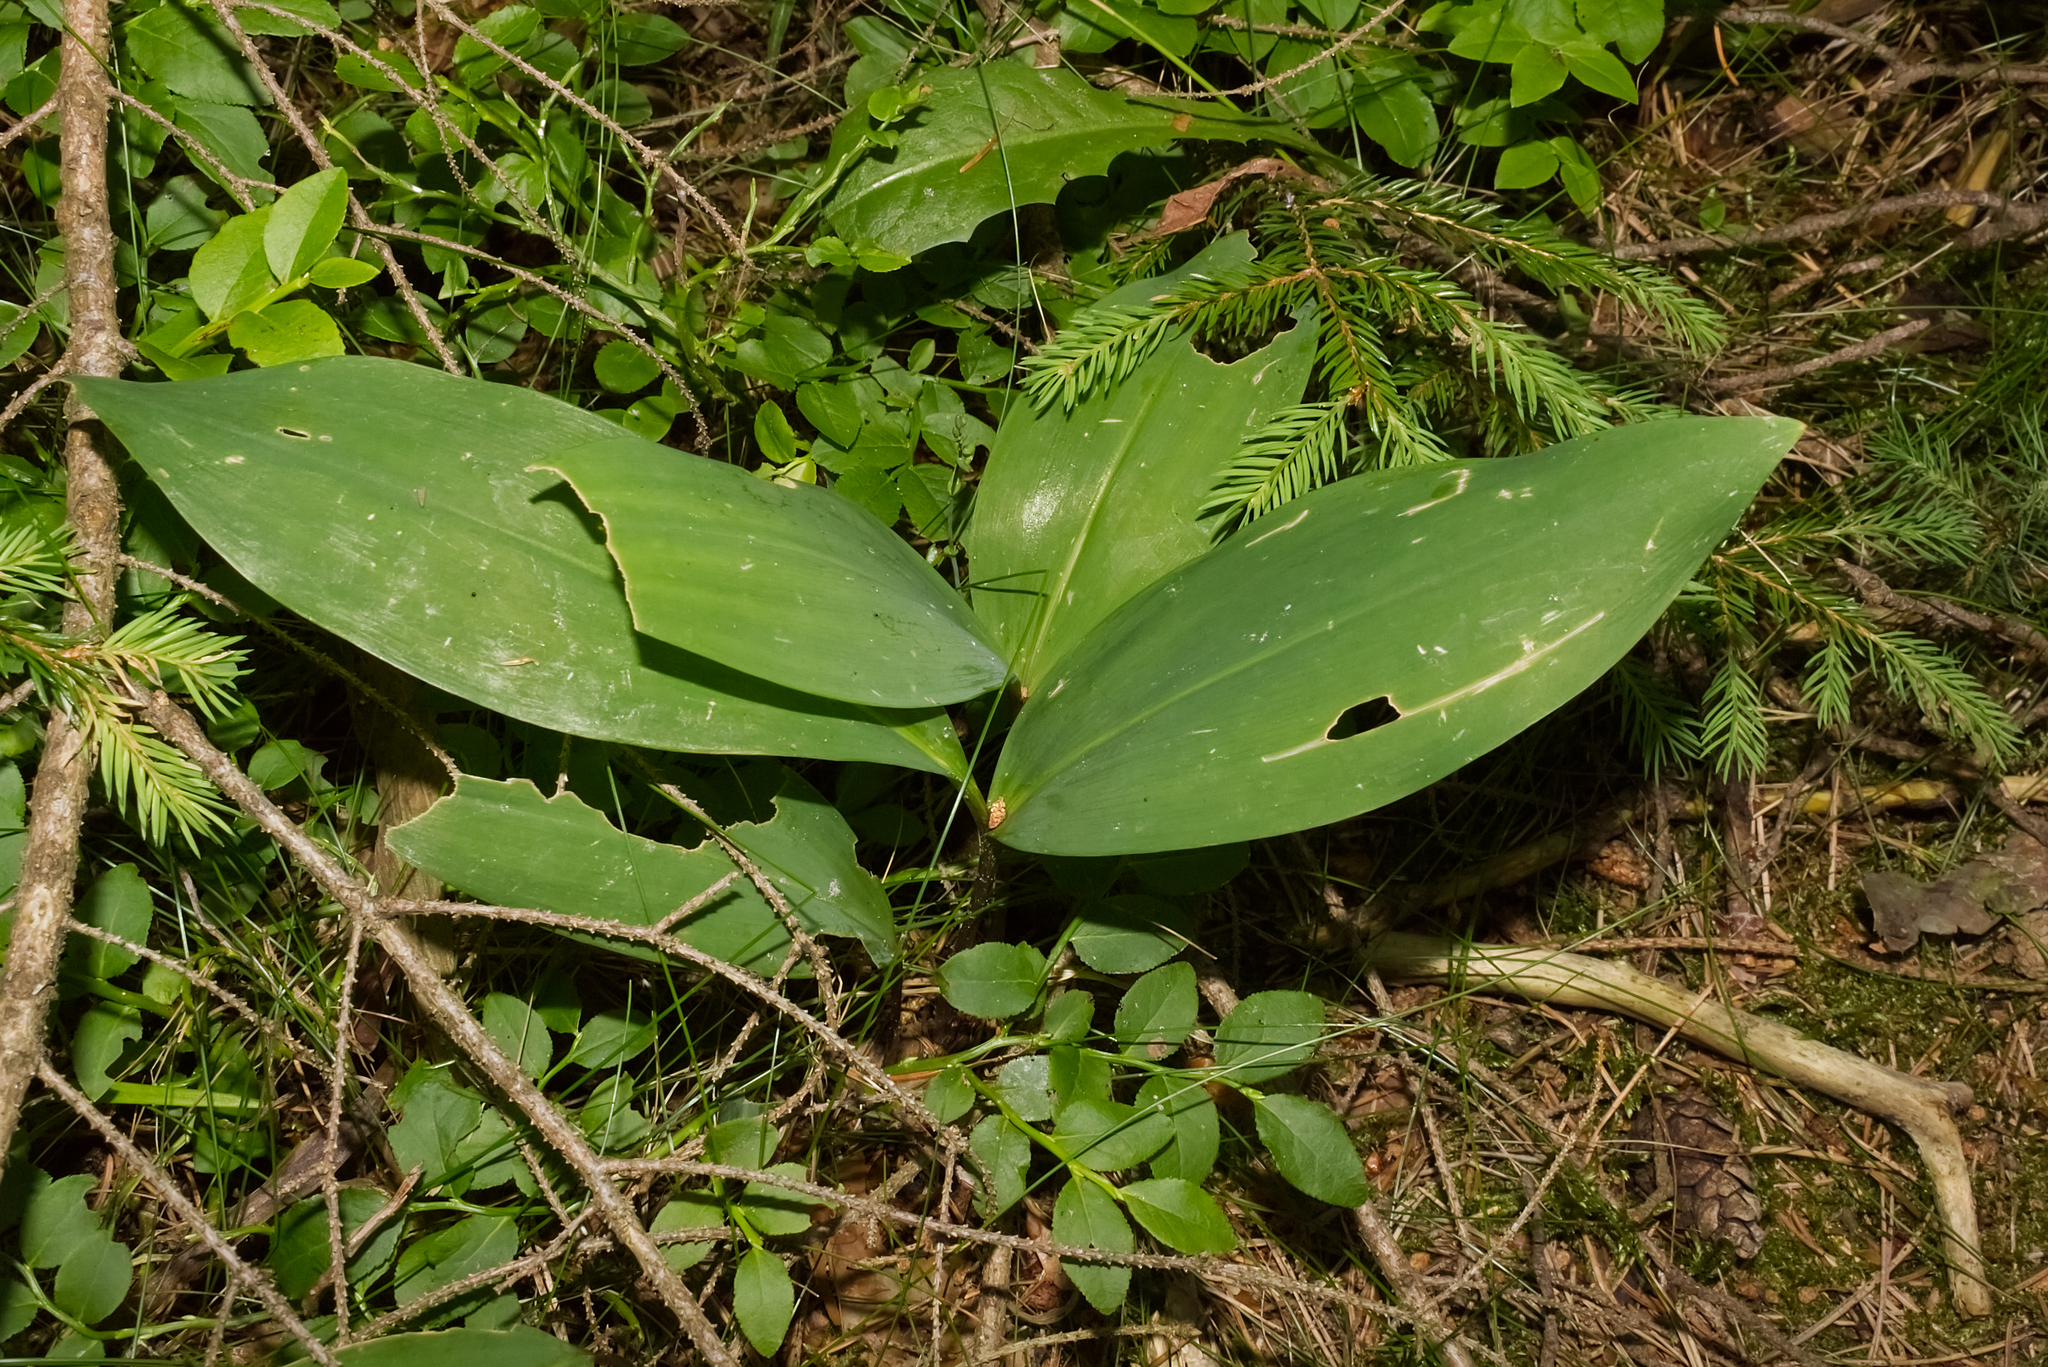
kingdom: Plantae
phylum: Tracheophyta
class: Liliopsida
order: Asparagales
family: Asparagaceae
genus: Convallaria
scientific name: Convallaria majalis
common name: Lily-of-the-valley
